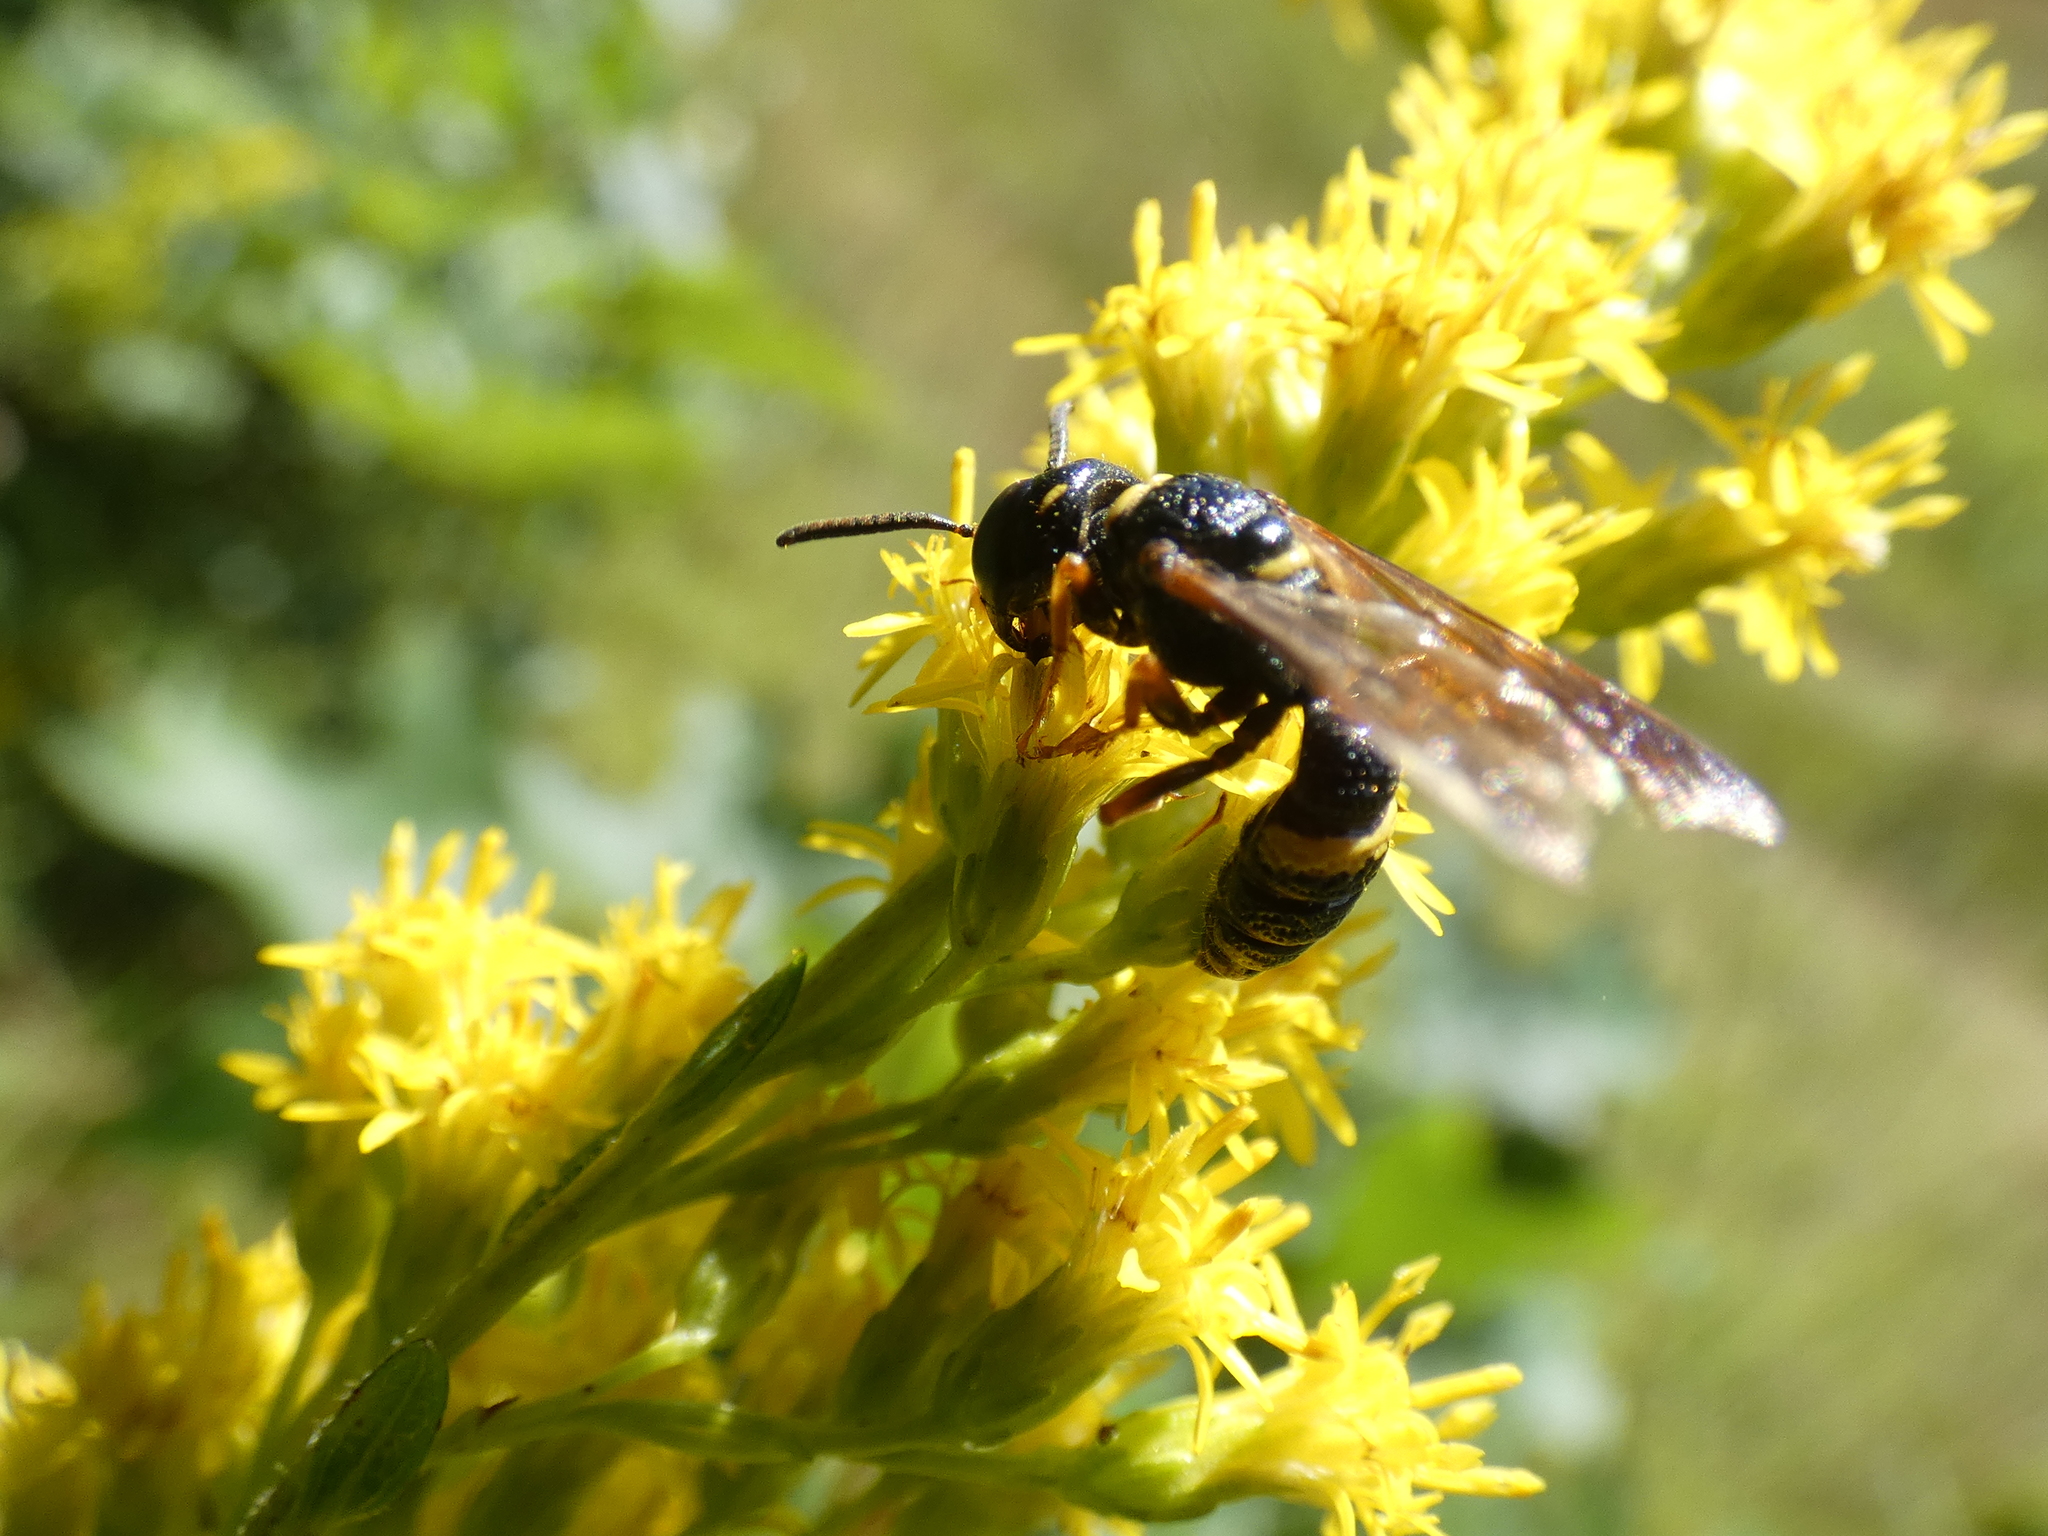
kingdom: Animalia
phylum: Arthropoda
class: Insecta
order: Hymenoptera
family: Crabronidae
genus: Philanthus
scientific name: Philanthus gibbosus
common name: Humped beewolf
